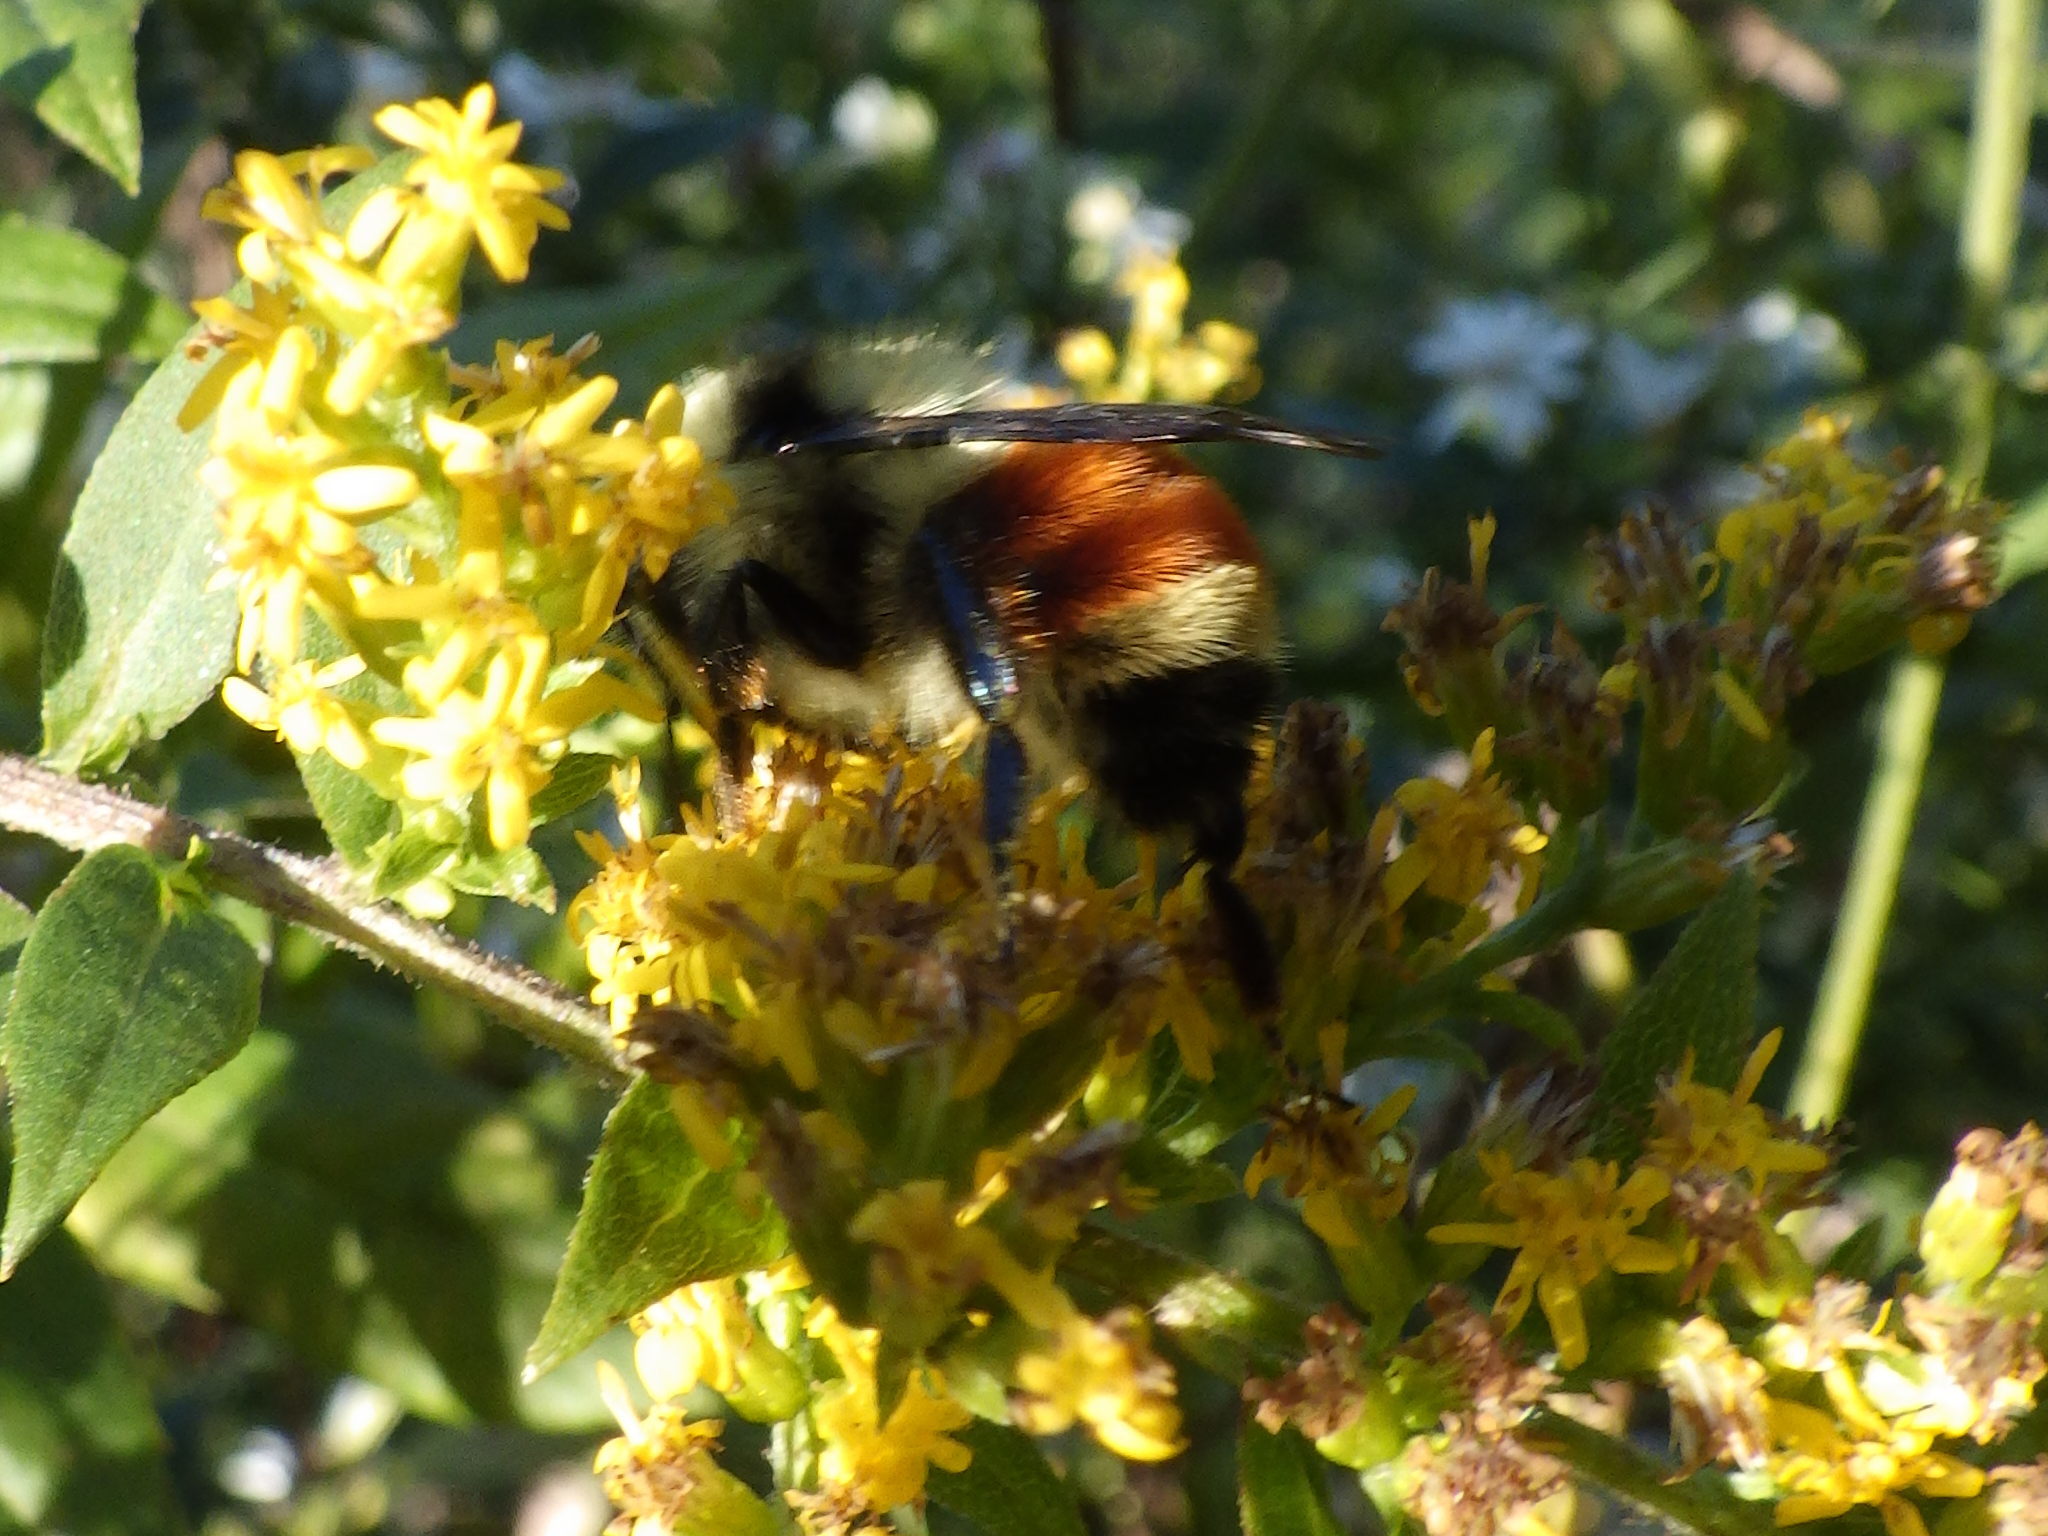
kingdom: Animalia
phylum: Arthropoda
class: Insecta
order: Hymenoptera
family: Apidae
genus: Bombus
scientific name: Bombus ternarius
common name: Tri-colored bumble bee
